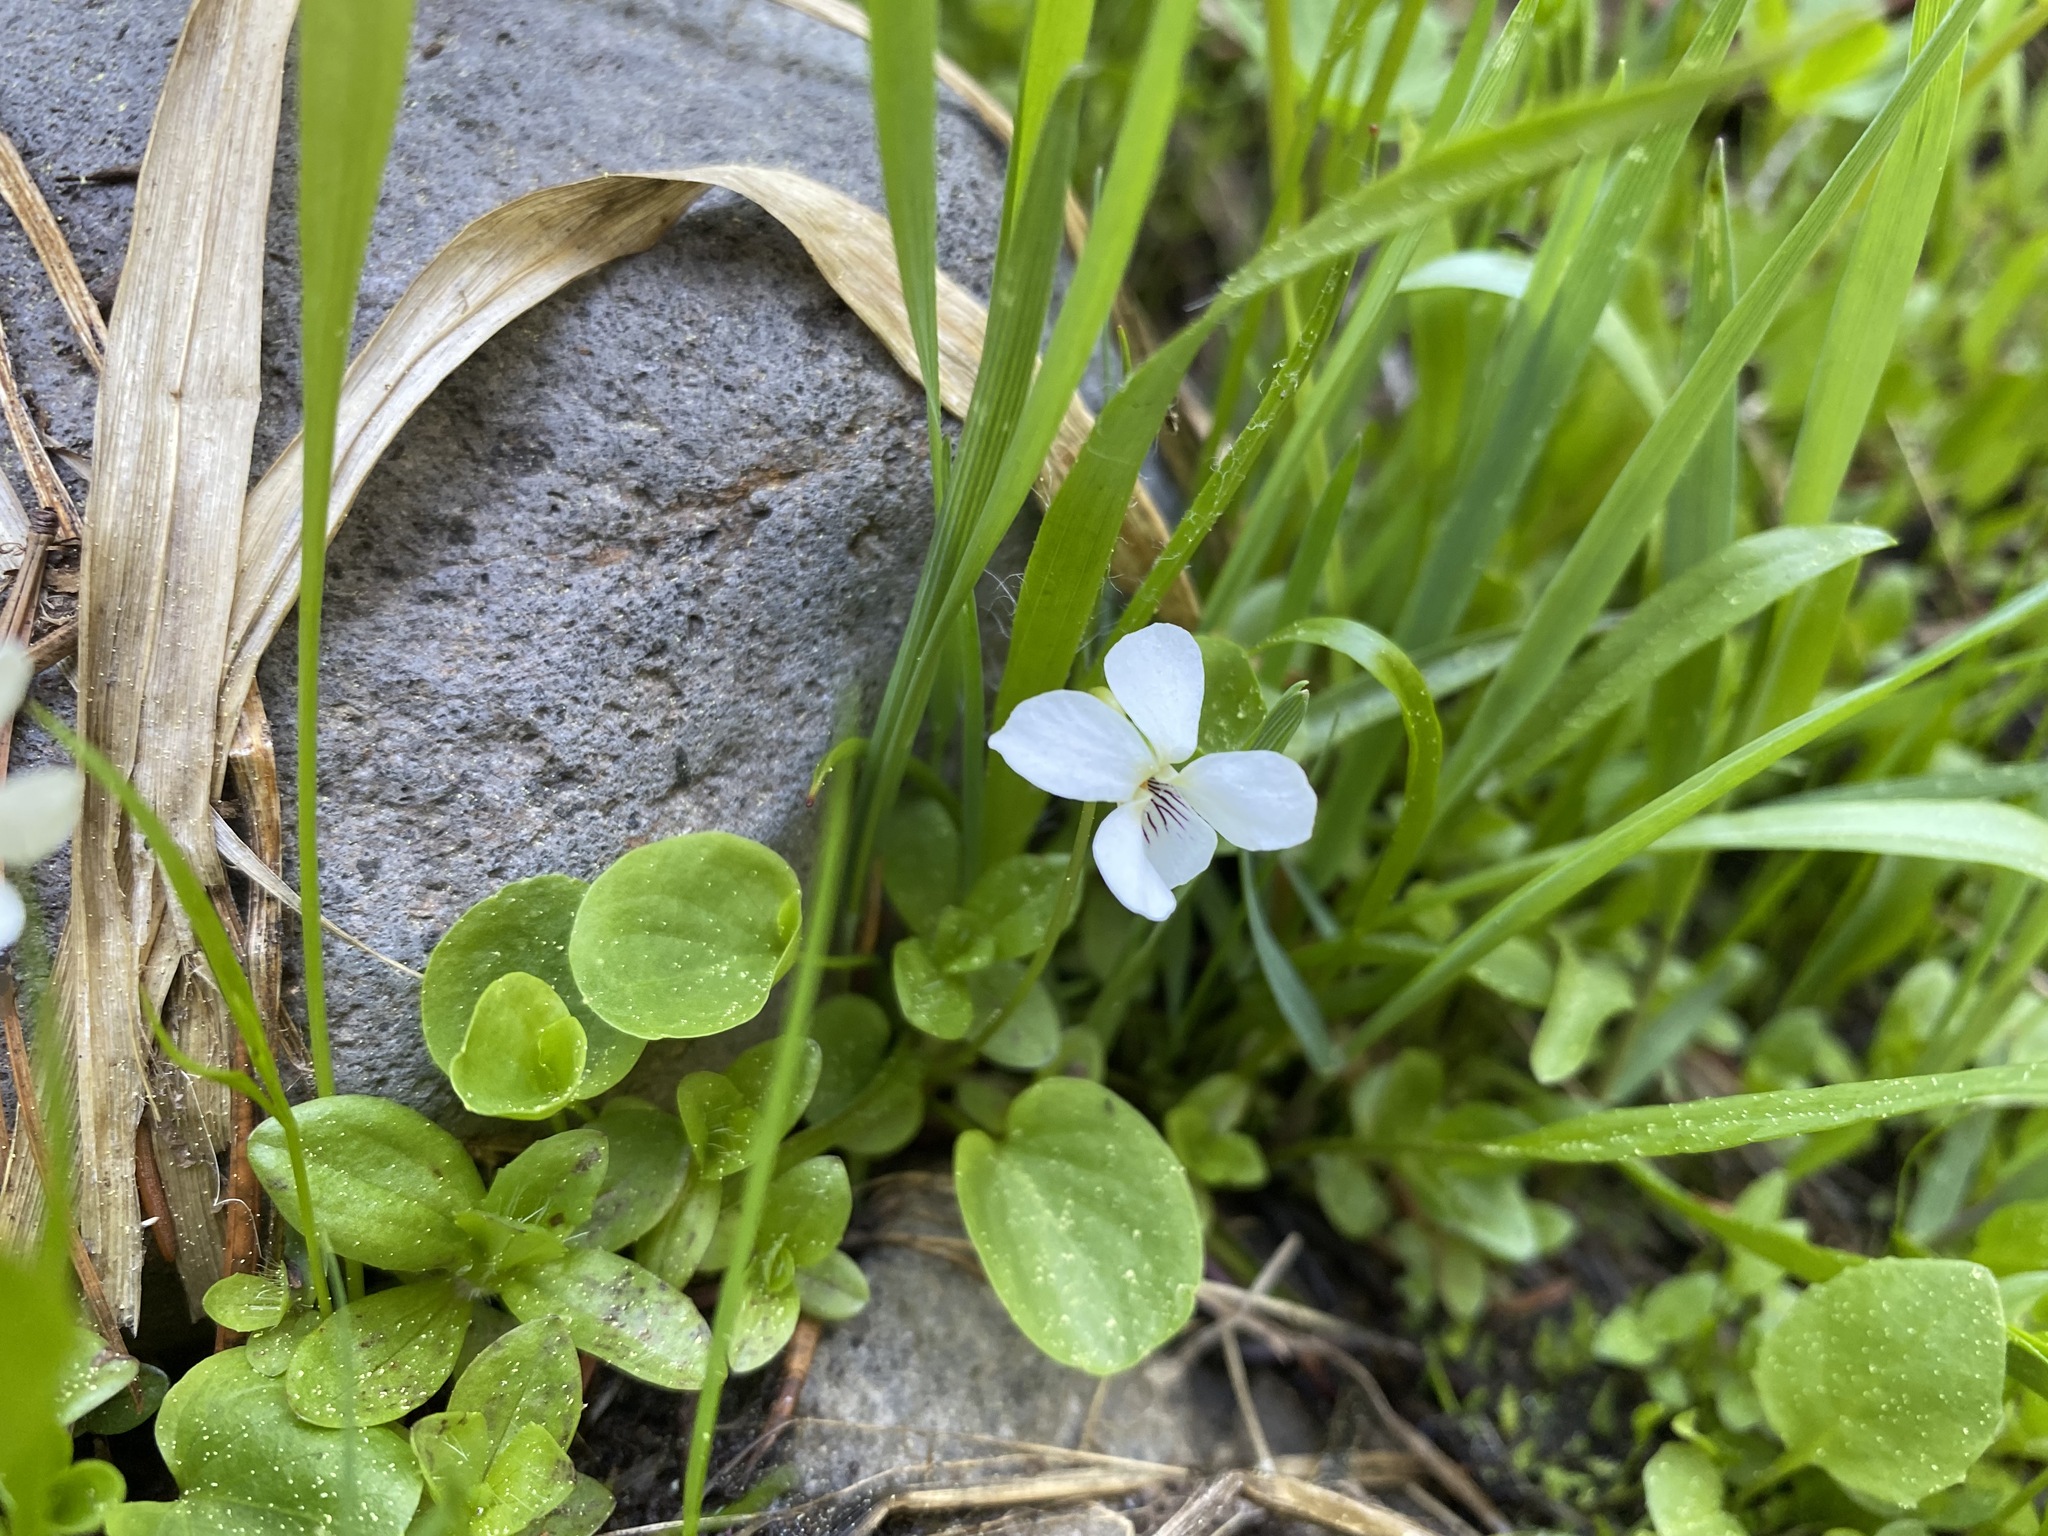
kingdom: Plantae
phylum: Tracheophyta
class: Magnoliopsida
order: Malpighiales
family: Violaceae
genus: Viola
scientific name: Viola macloskeyi
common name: Macloskey's violet
